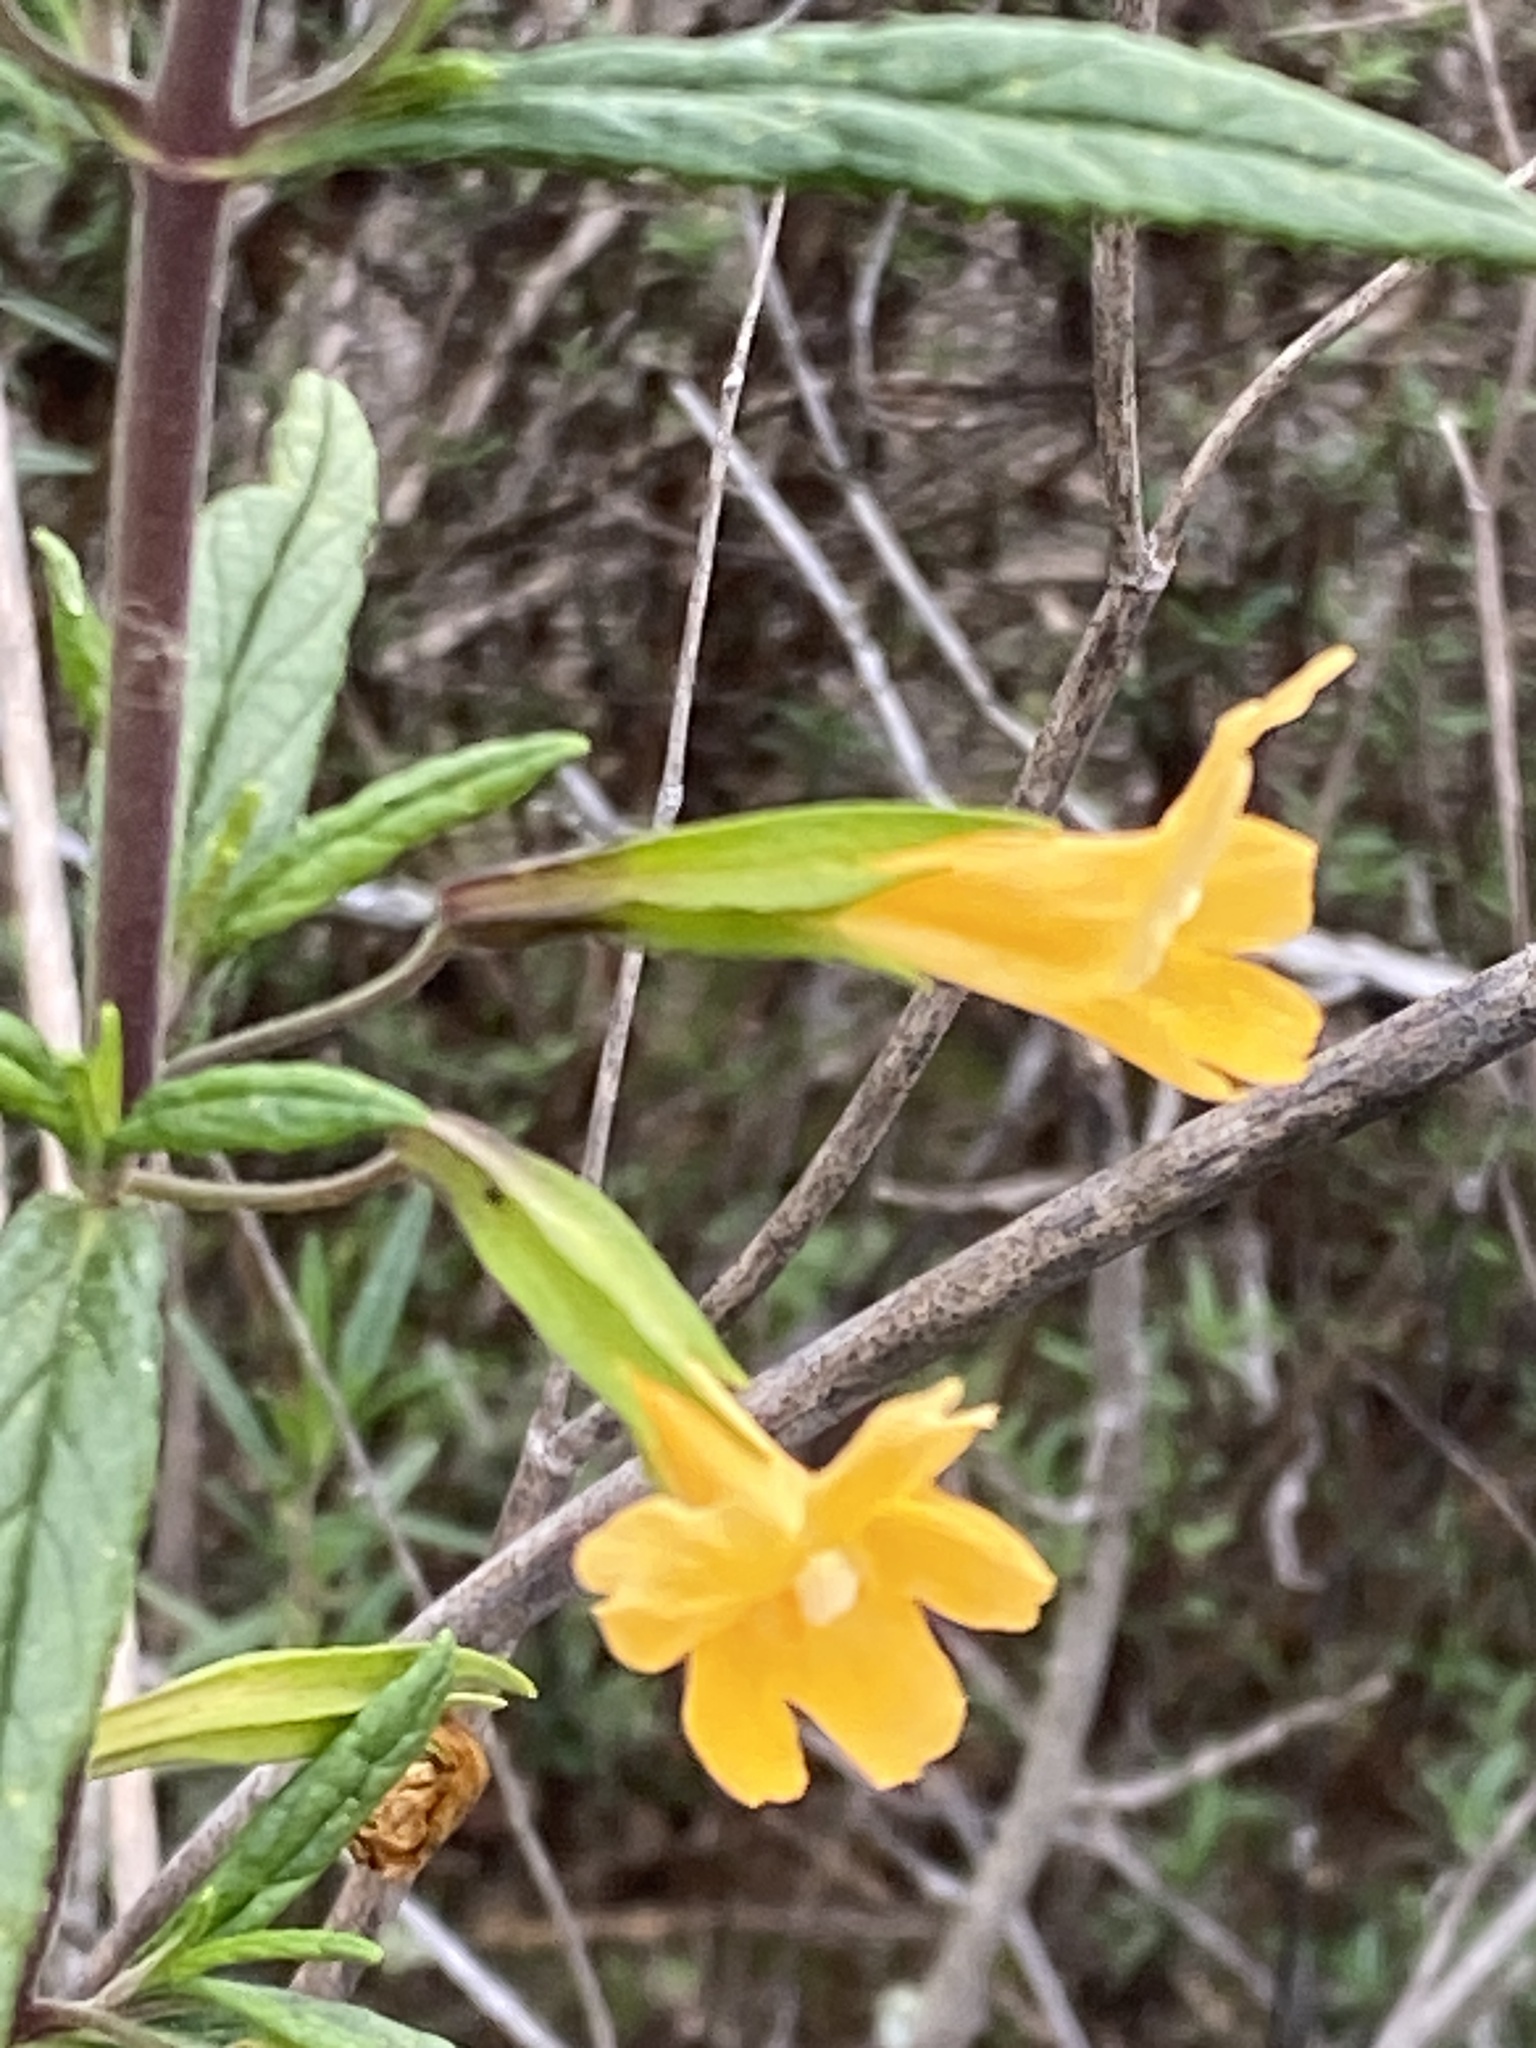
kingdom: Plantae
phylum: Tracheophyta
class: Magnoliopsida
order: Lamiales
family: Phrymaceae
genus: Diplacus
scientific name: Diplacus aurantiacus
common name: Bush monkey-flower
